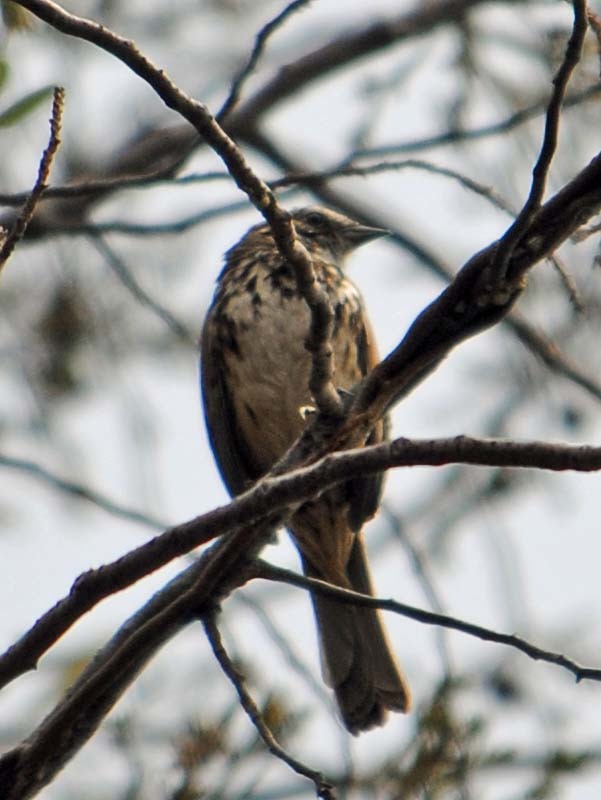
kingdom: Animalia
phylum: Chordata
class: Aves
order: Passeriformes
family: Passerellidae
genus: Melospiza
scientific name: Melospiza melodia
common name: Song sparrow
